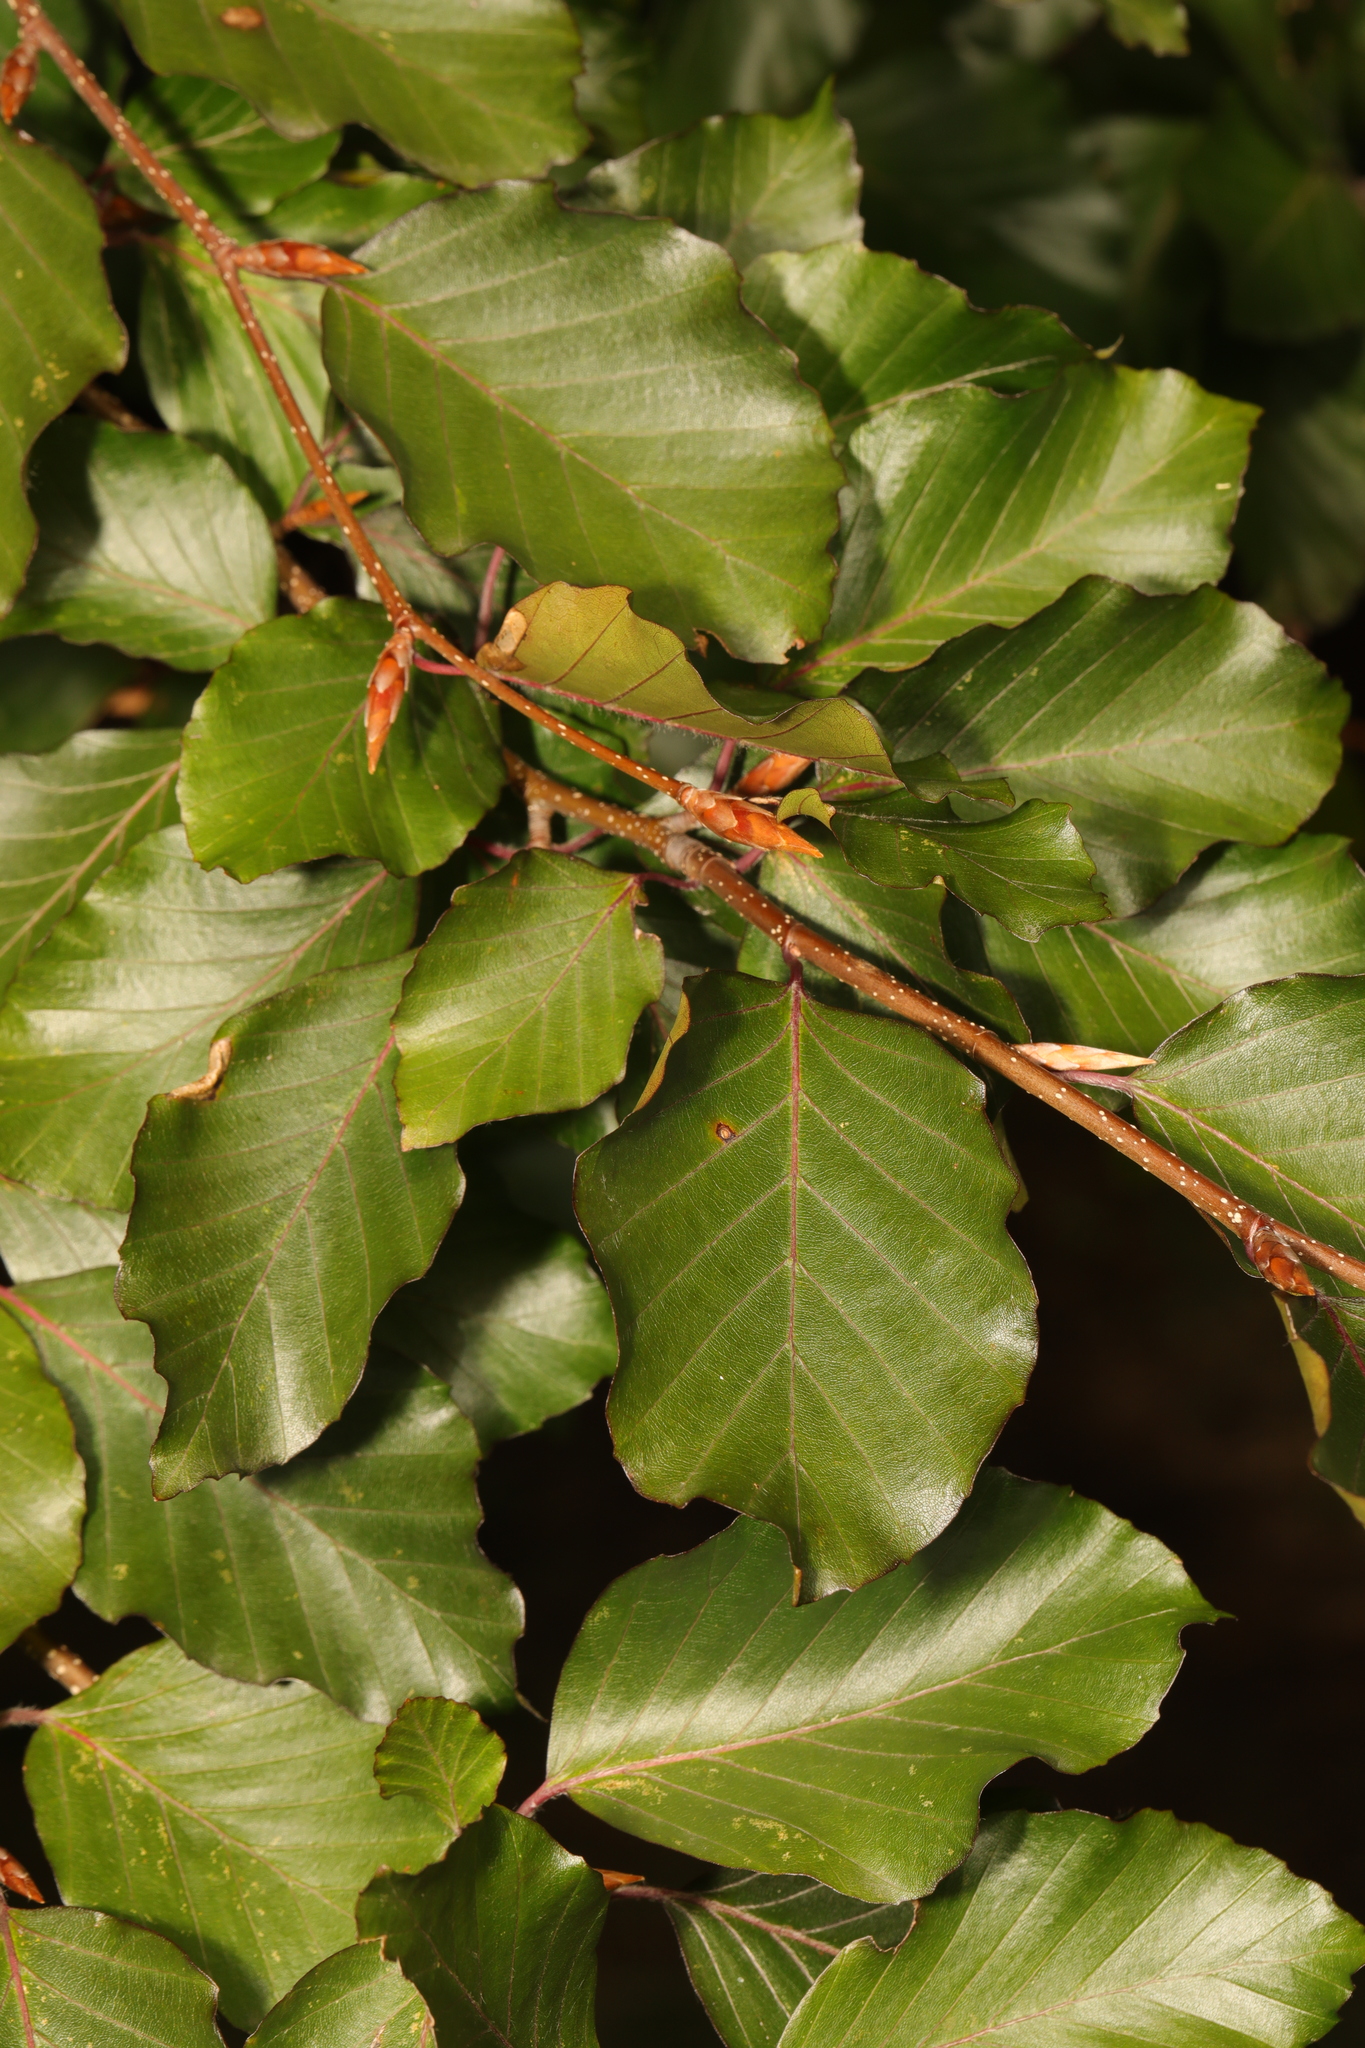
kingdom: Plantae
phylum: Tracheophyta
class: Magnoliopsida
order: Fagales
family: Fagaceae
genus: Fagus
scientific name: Fagus sylvatica
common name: Beech
